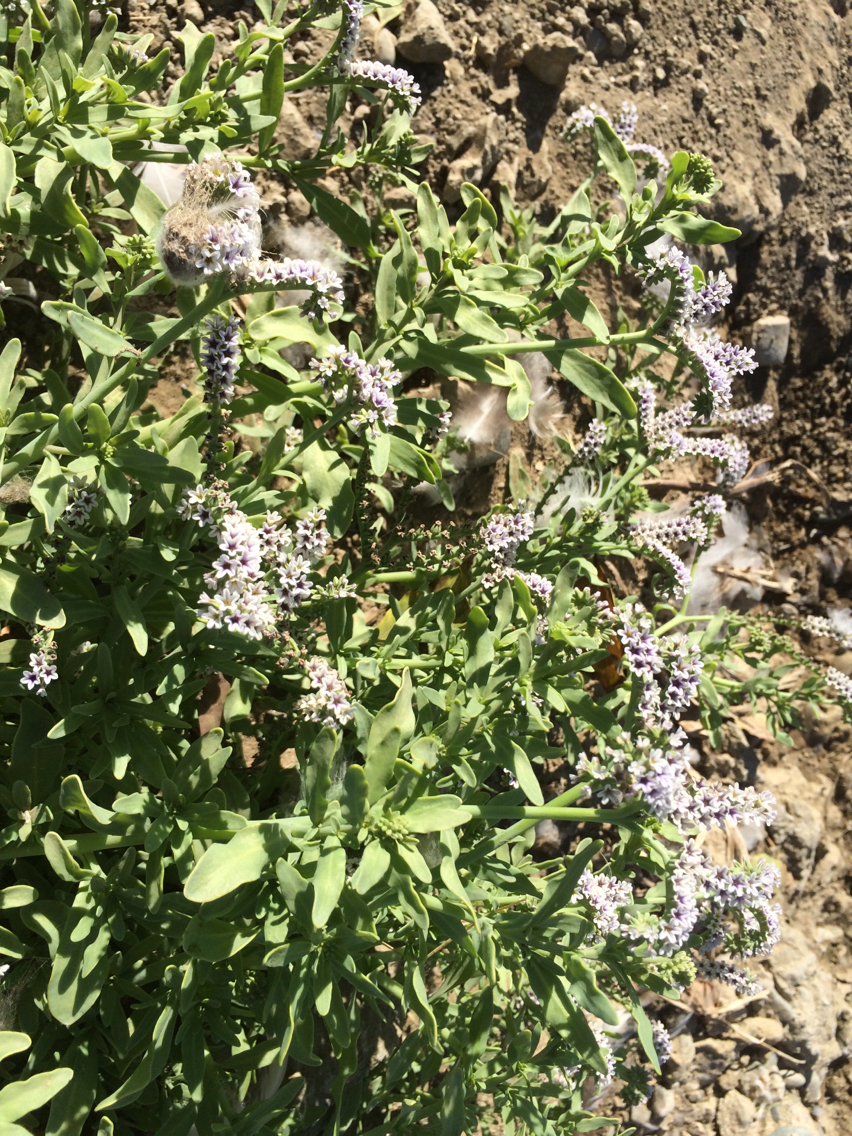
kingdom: Plantae
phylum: Tracheophyta
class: Magnoliopsida
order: Boraginales
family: Heliotropiaceae
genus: Heliotropium
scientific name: Heliotropium curassavicum
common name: Seaside heliotrope
